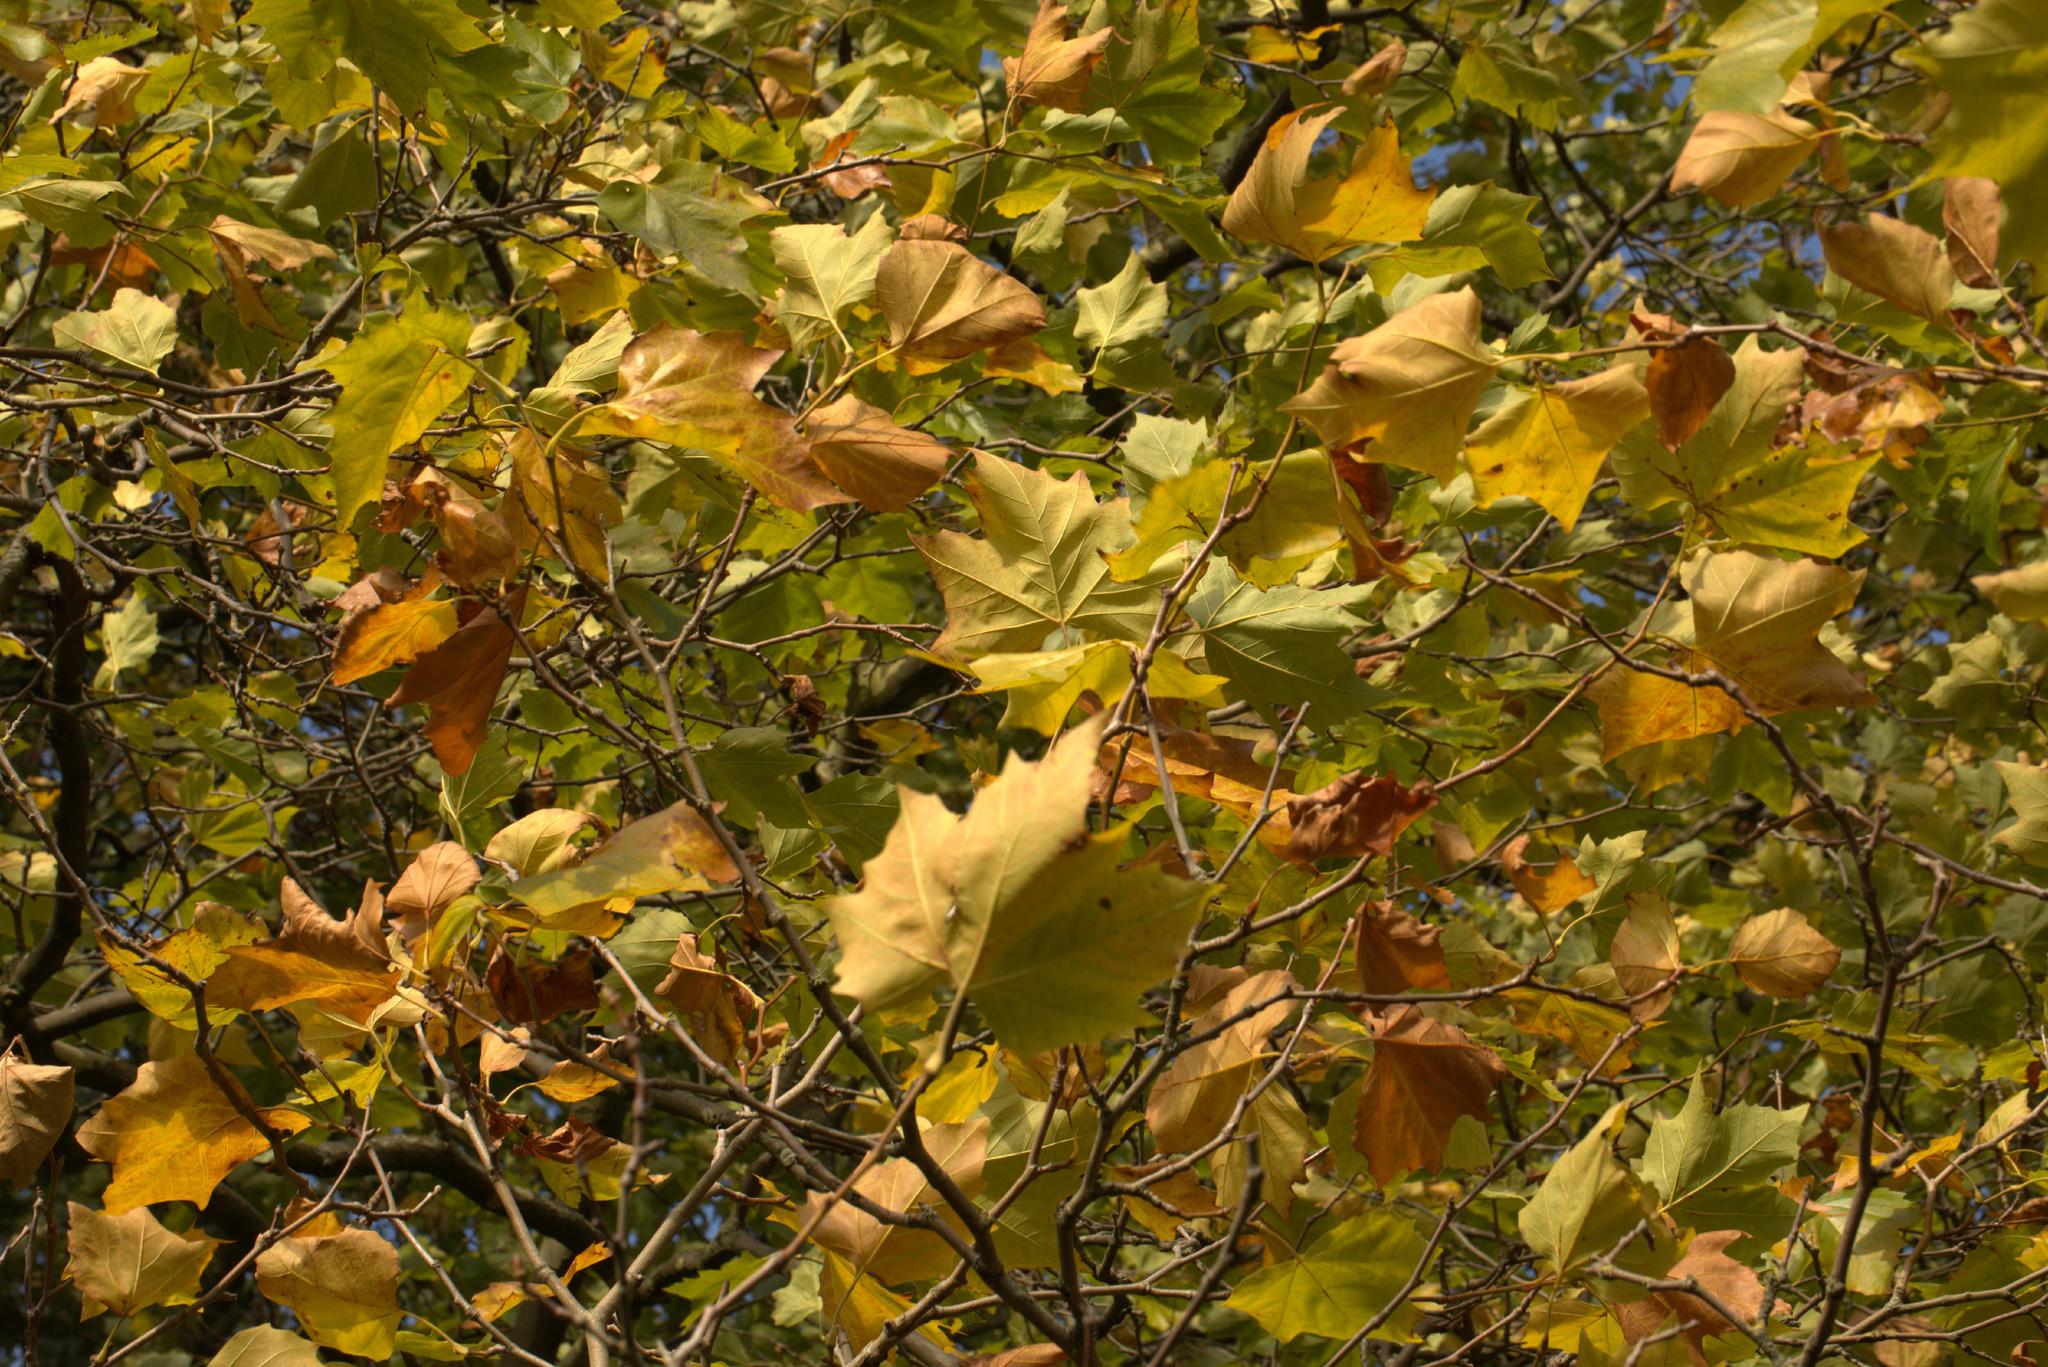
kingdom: Plantae
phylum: Tracheophyta
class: Magnoliopsida
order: Proteales
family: Platanaceae
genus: Platanus
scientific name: Platanus hispanica
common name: London plane
